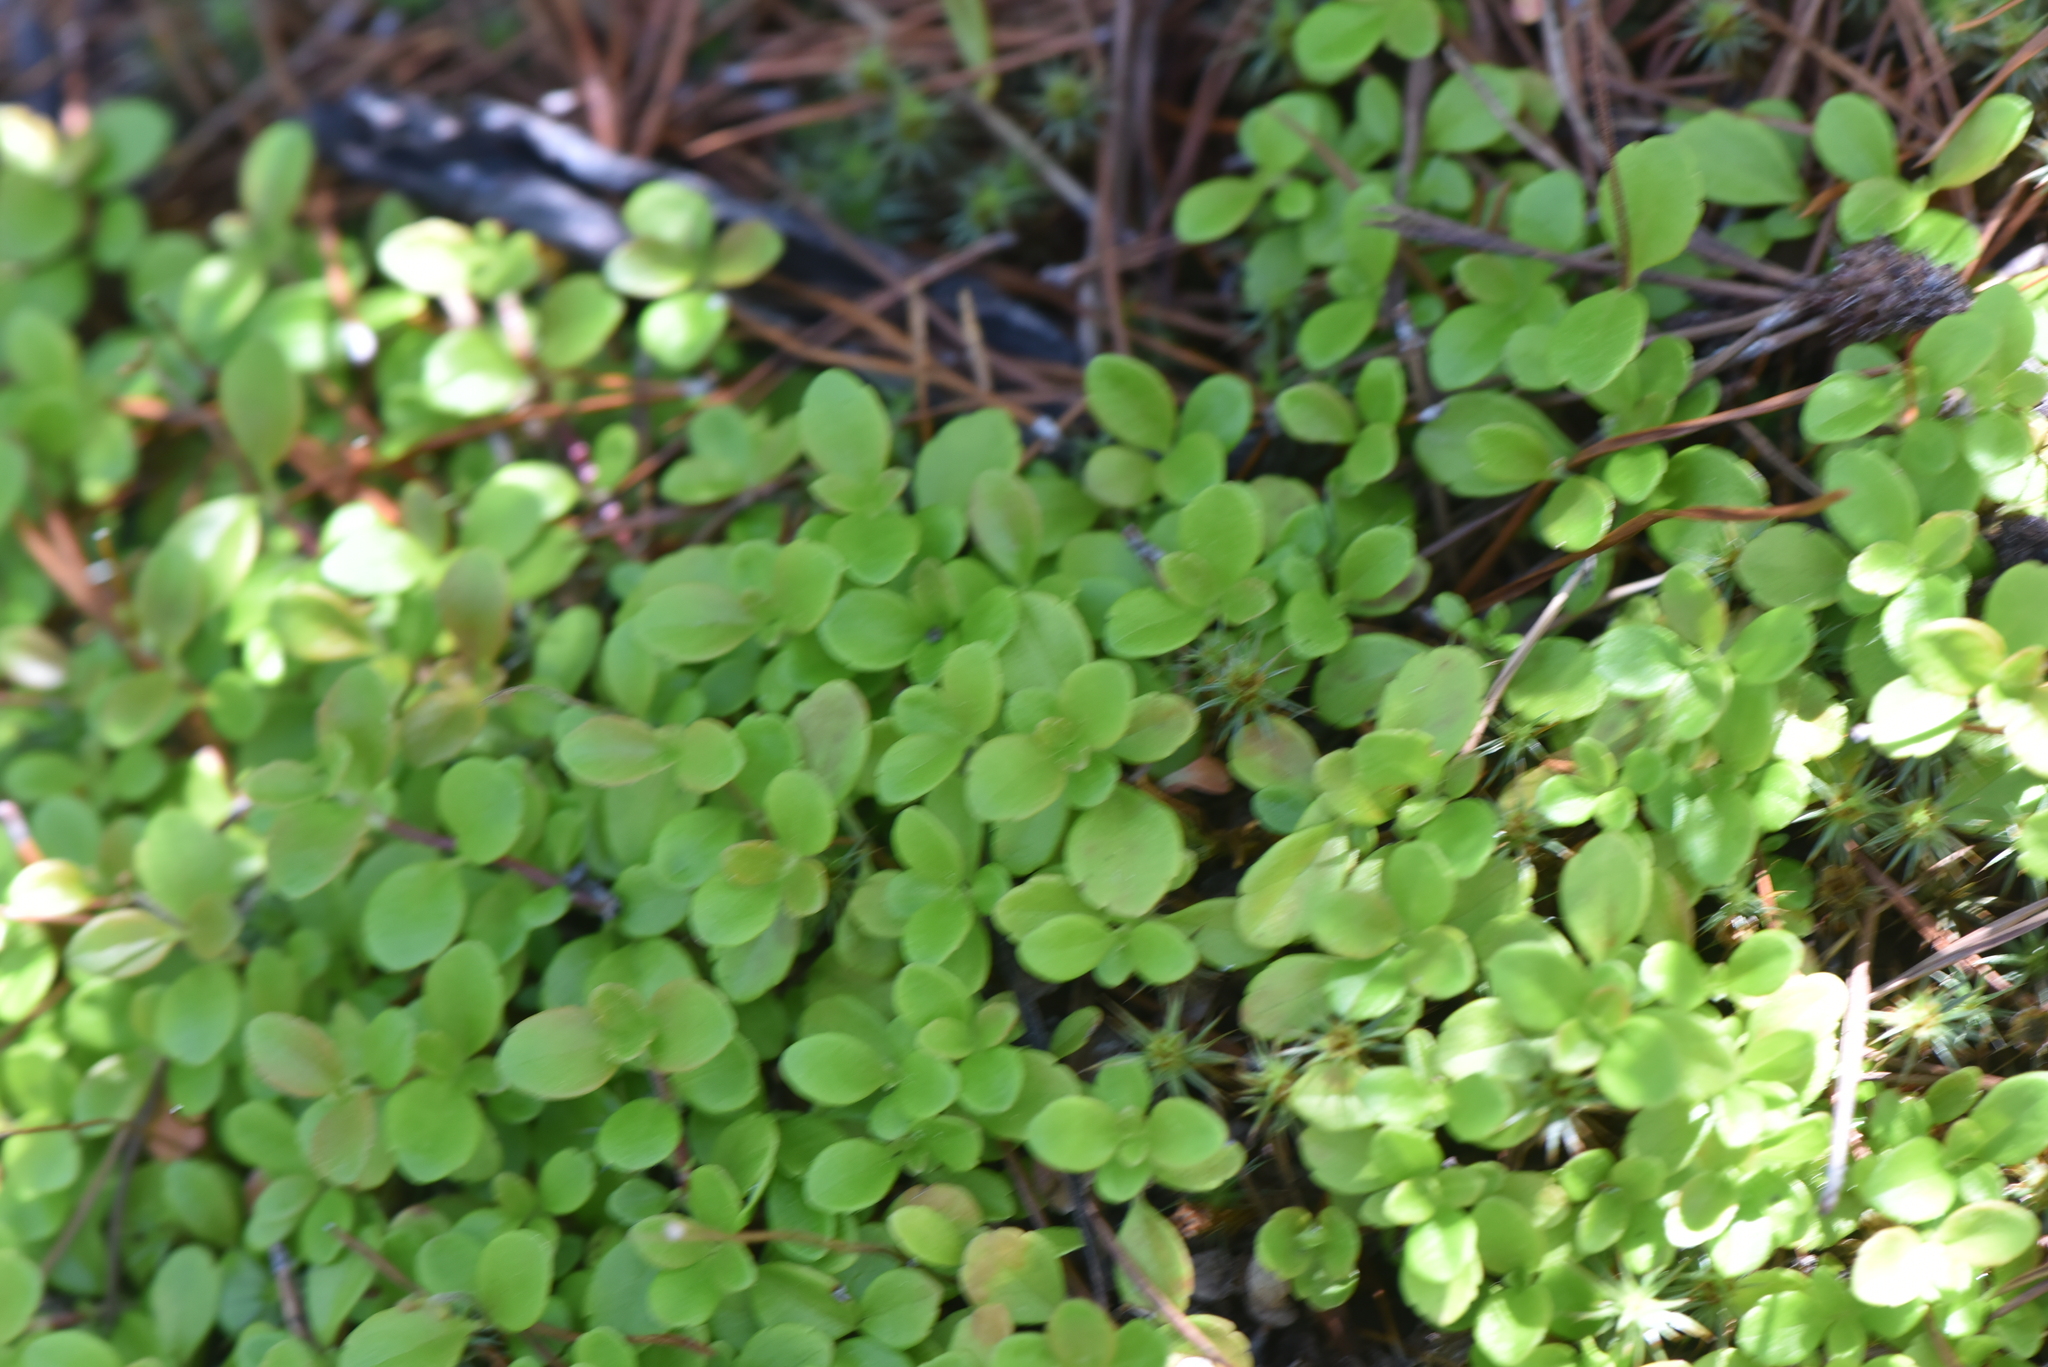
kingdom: Plantae
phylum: Tracheophyta
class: Magnoliopsida
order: Dipsacales
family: Caprifoliaceae
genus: Linnaea
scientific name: Linnaea borealis
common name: Twinflower
